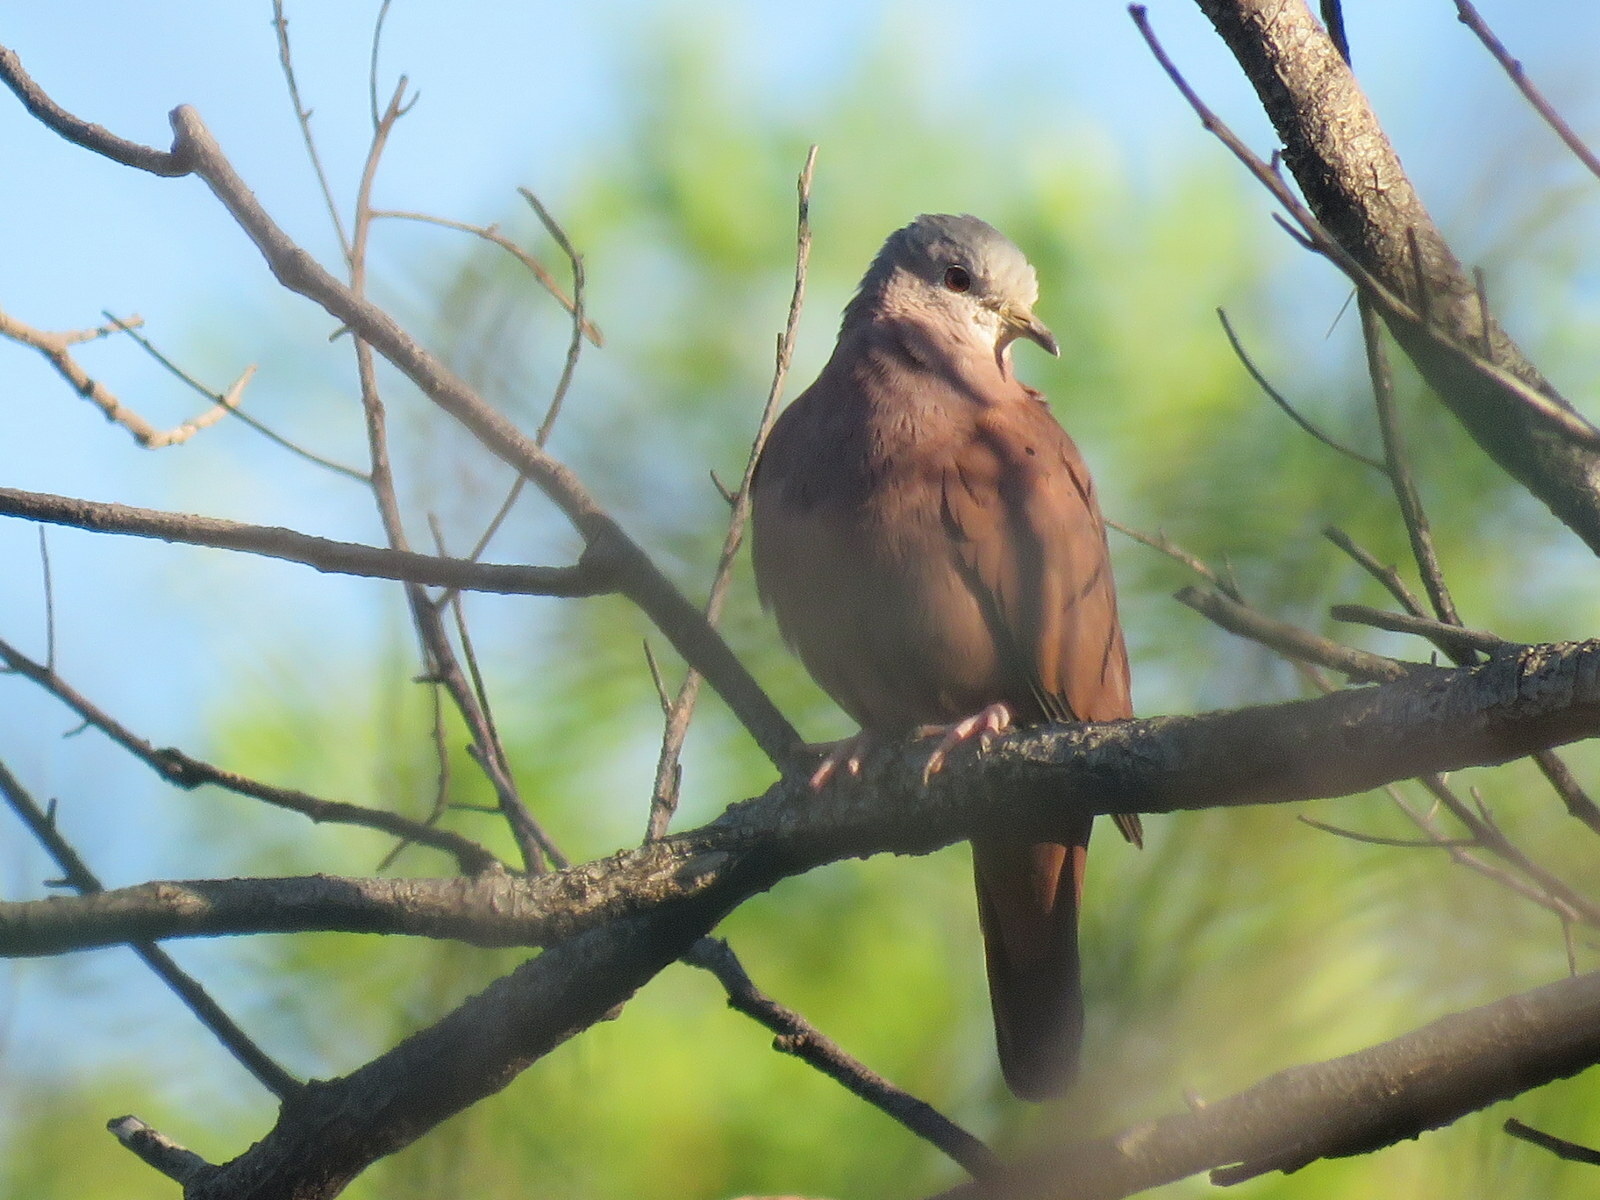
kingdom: Animalia
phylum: Chordata
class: Aves
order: Columbiformes
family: Columbidae
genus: Columbina
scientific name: Columbina talpacoti
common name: Ruddy ground dove
